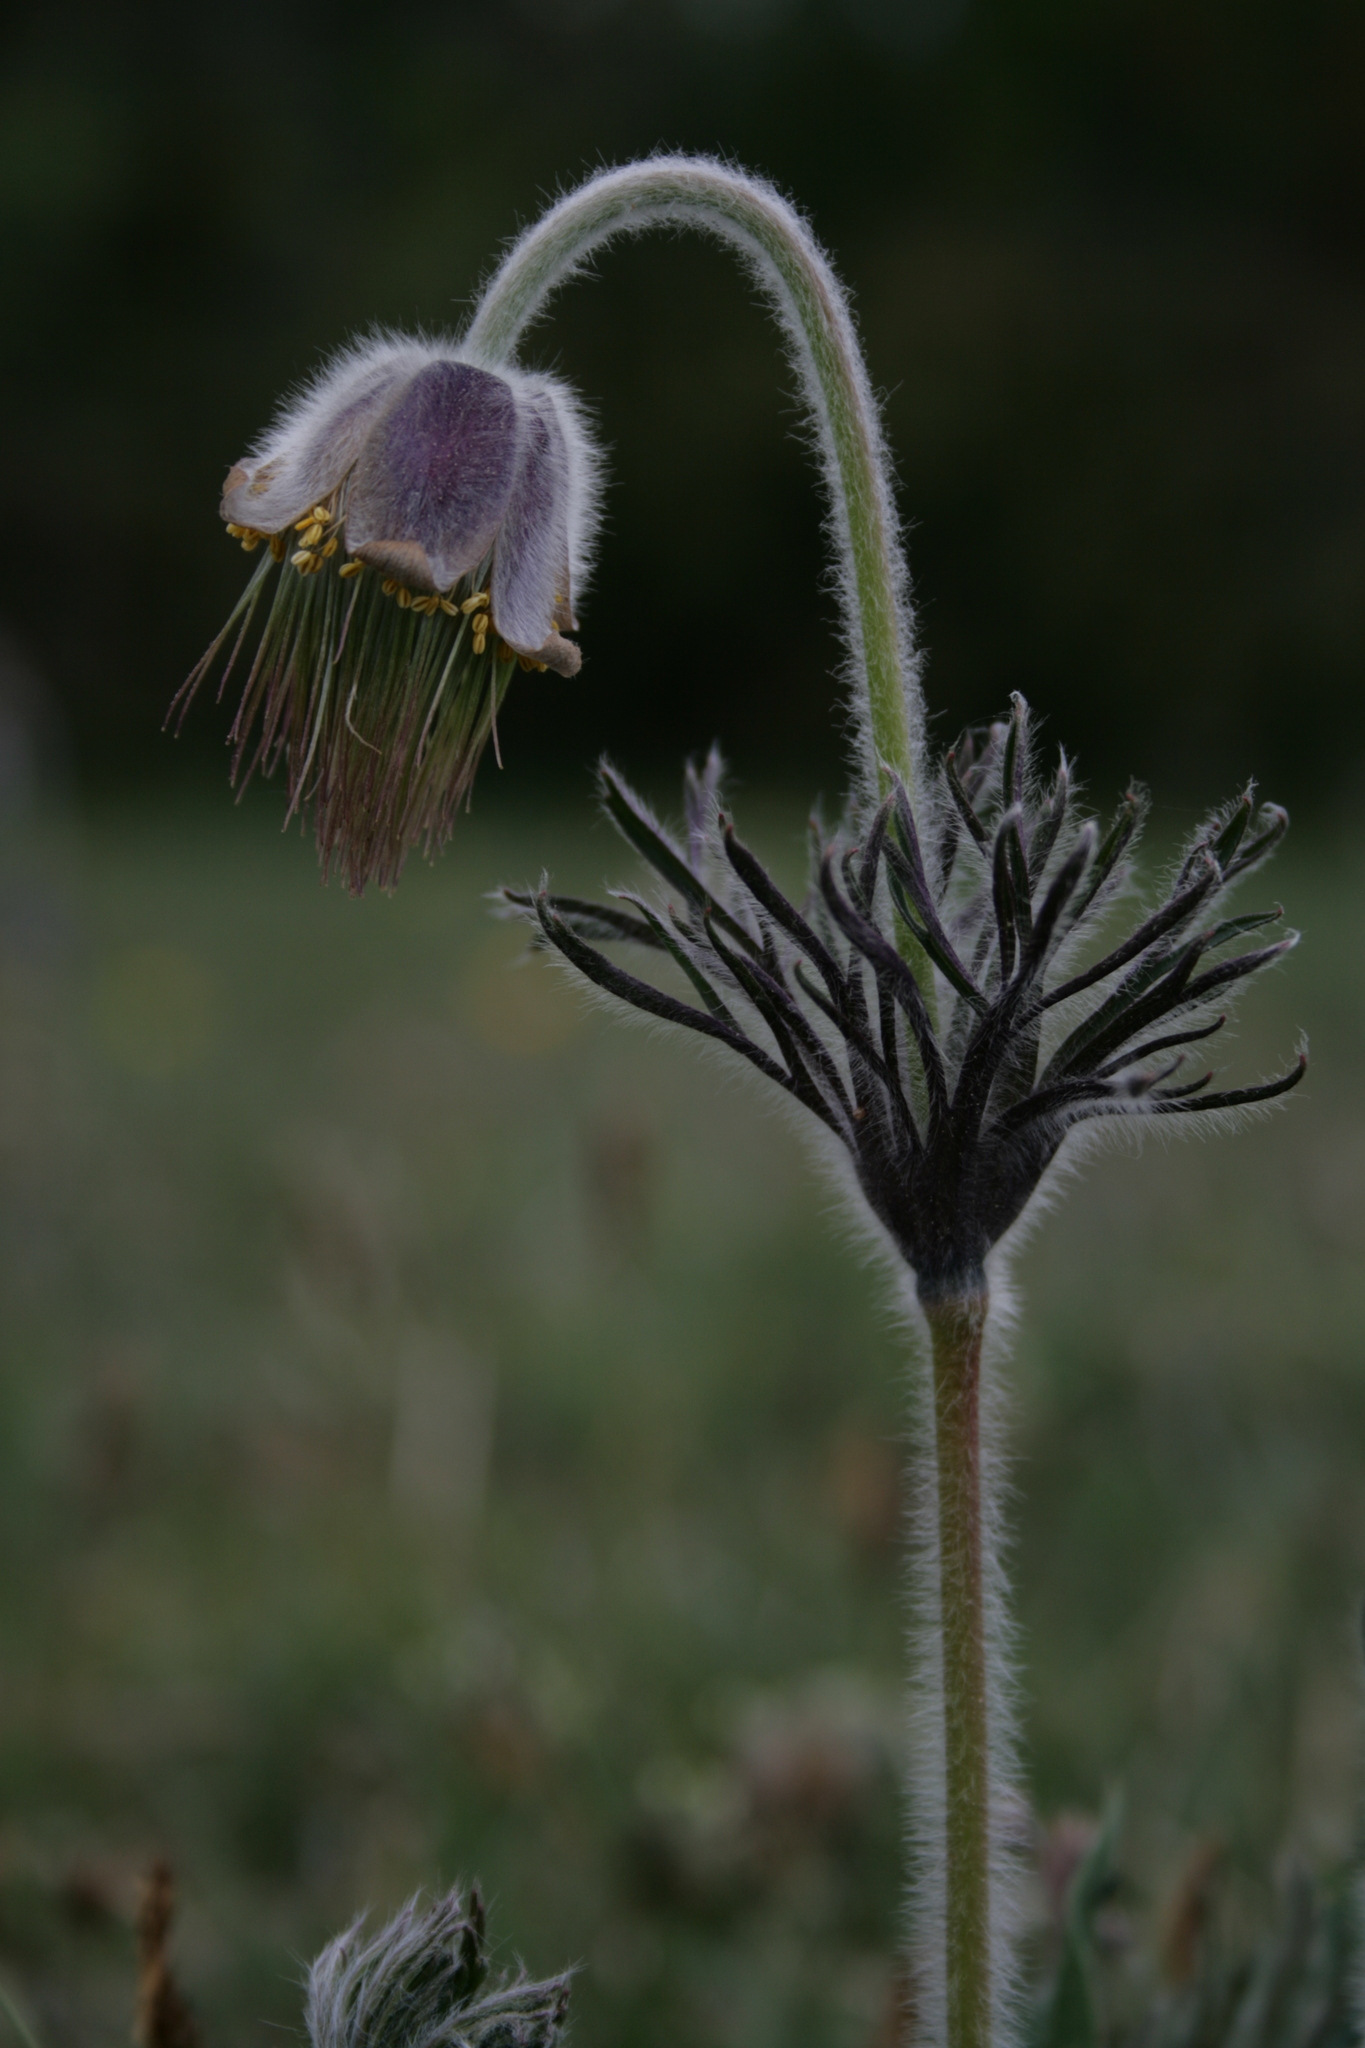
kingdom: Plantae
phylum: Tracheophyta
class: Magnoliopsida
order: Ranunculales
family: Ranunculaceae
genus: Pulsatilla
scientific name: Pulsatilla pratensis
